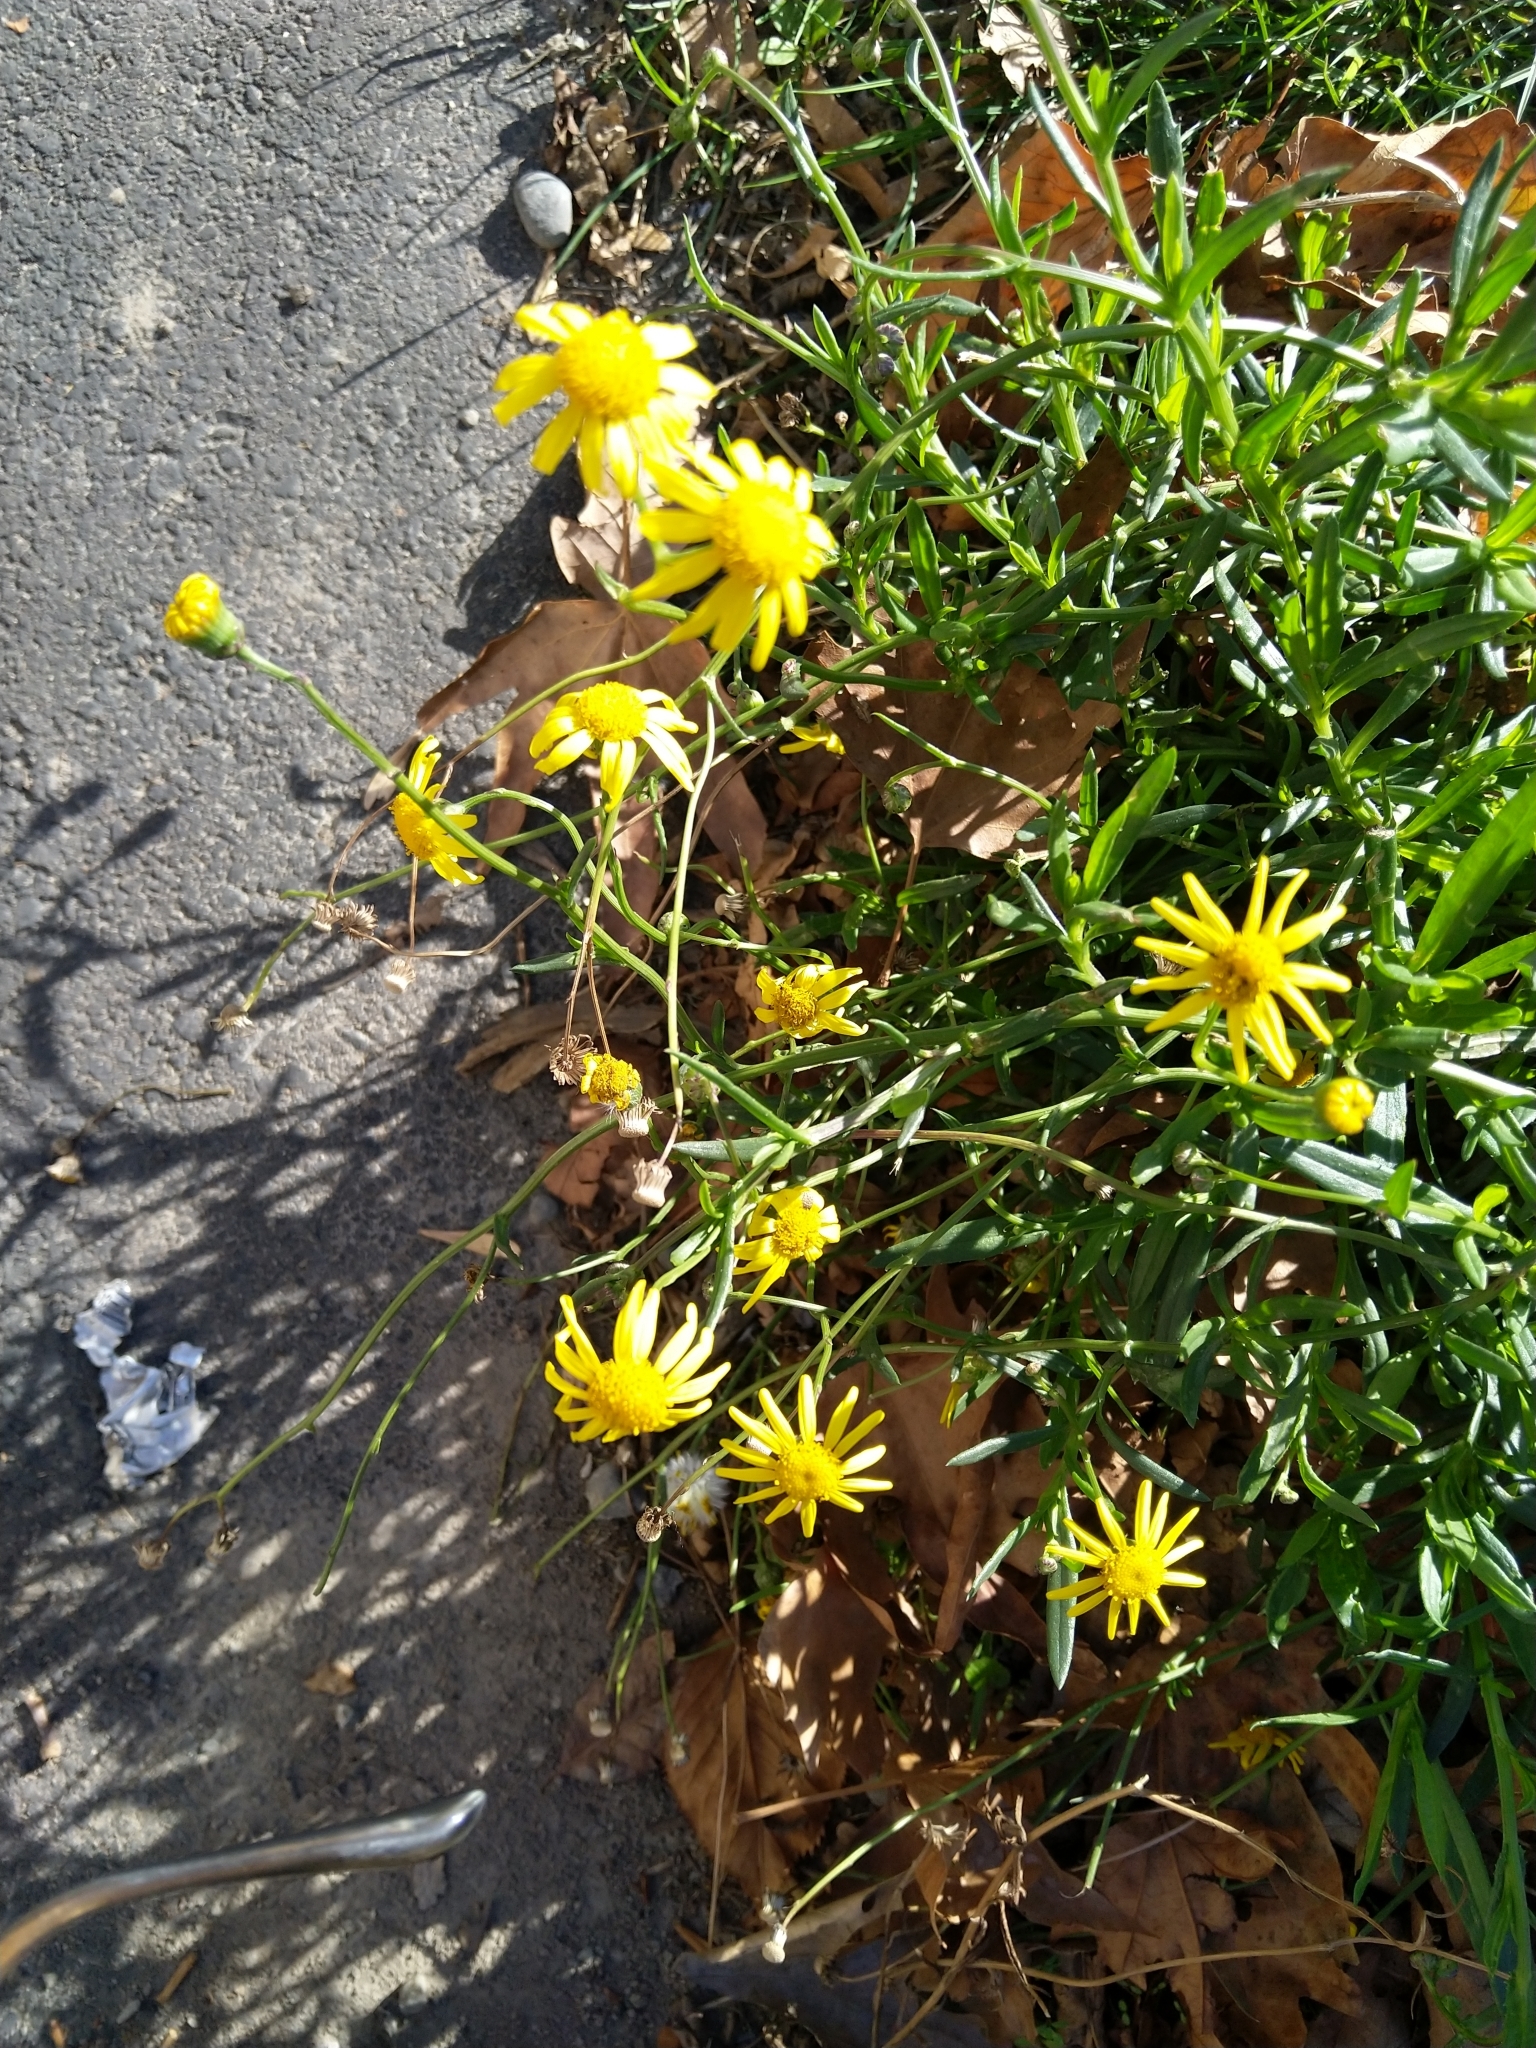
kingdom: Plantae
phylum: Tracheophyta
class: Magnoliopsida
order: Asterales
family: Asteraceae
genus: Senecio
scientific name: Senecio skirrhodon
